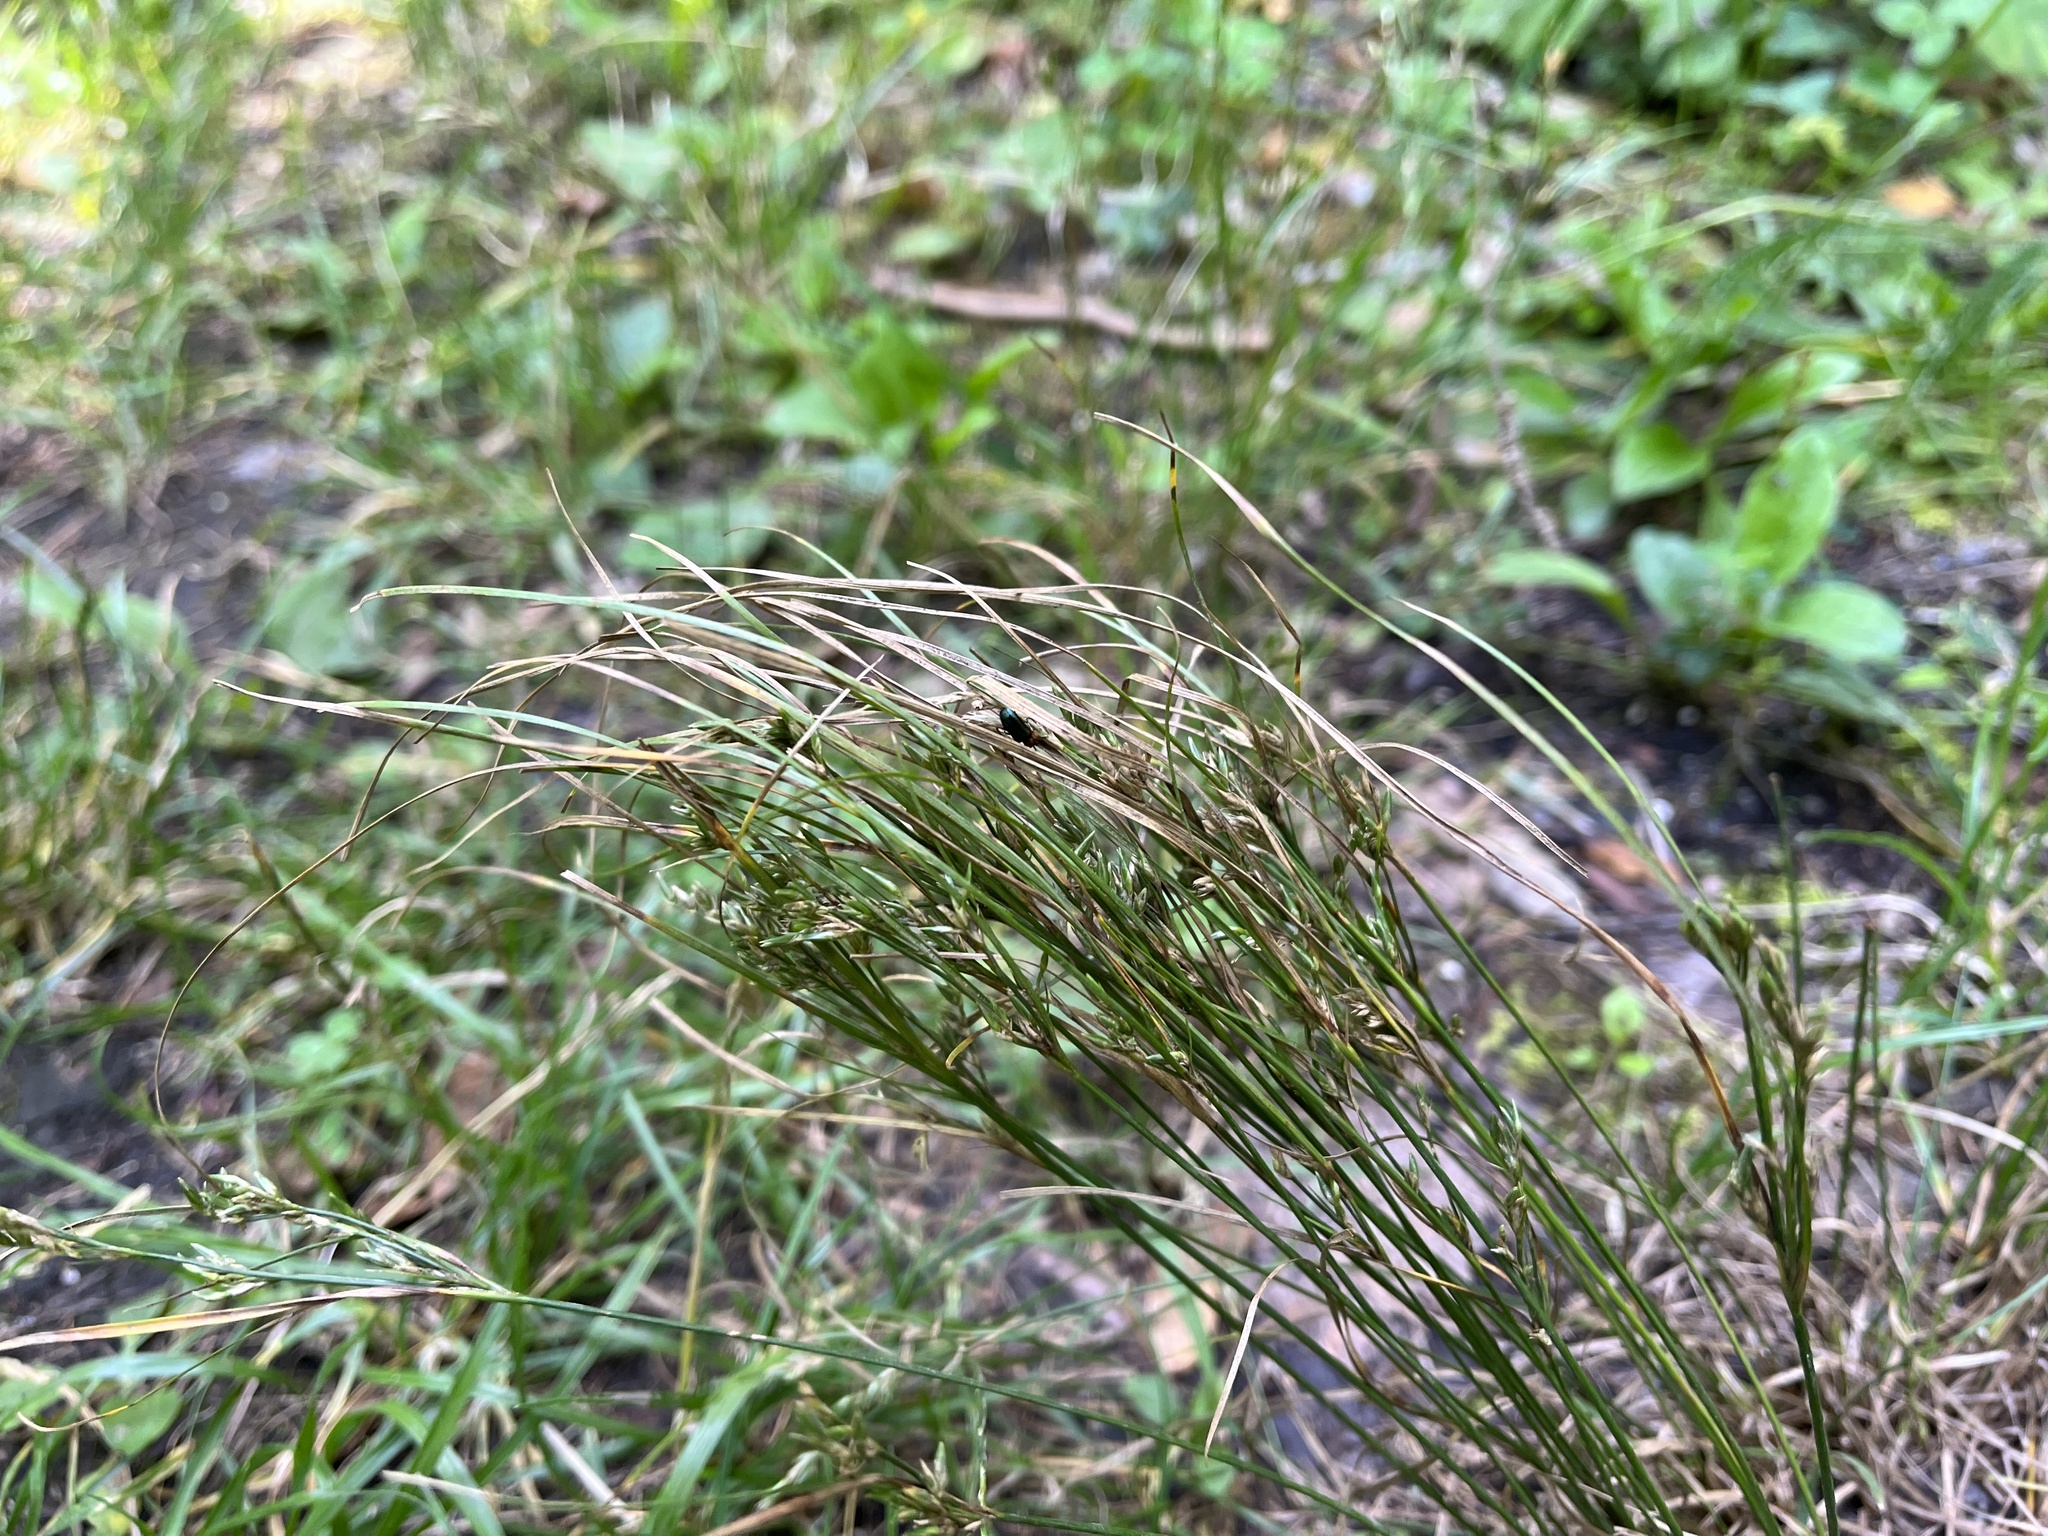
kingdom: Plantae
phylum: Tracheophyta
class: Liliopsida
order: Poales
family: Juncaceae
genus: Juncus
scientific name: Juncus tenuis
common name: Slender rush
